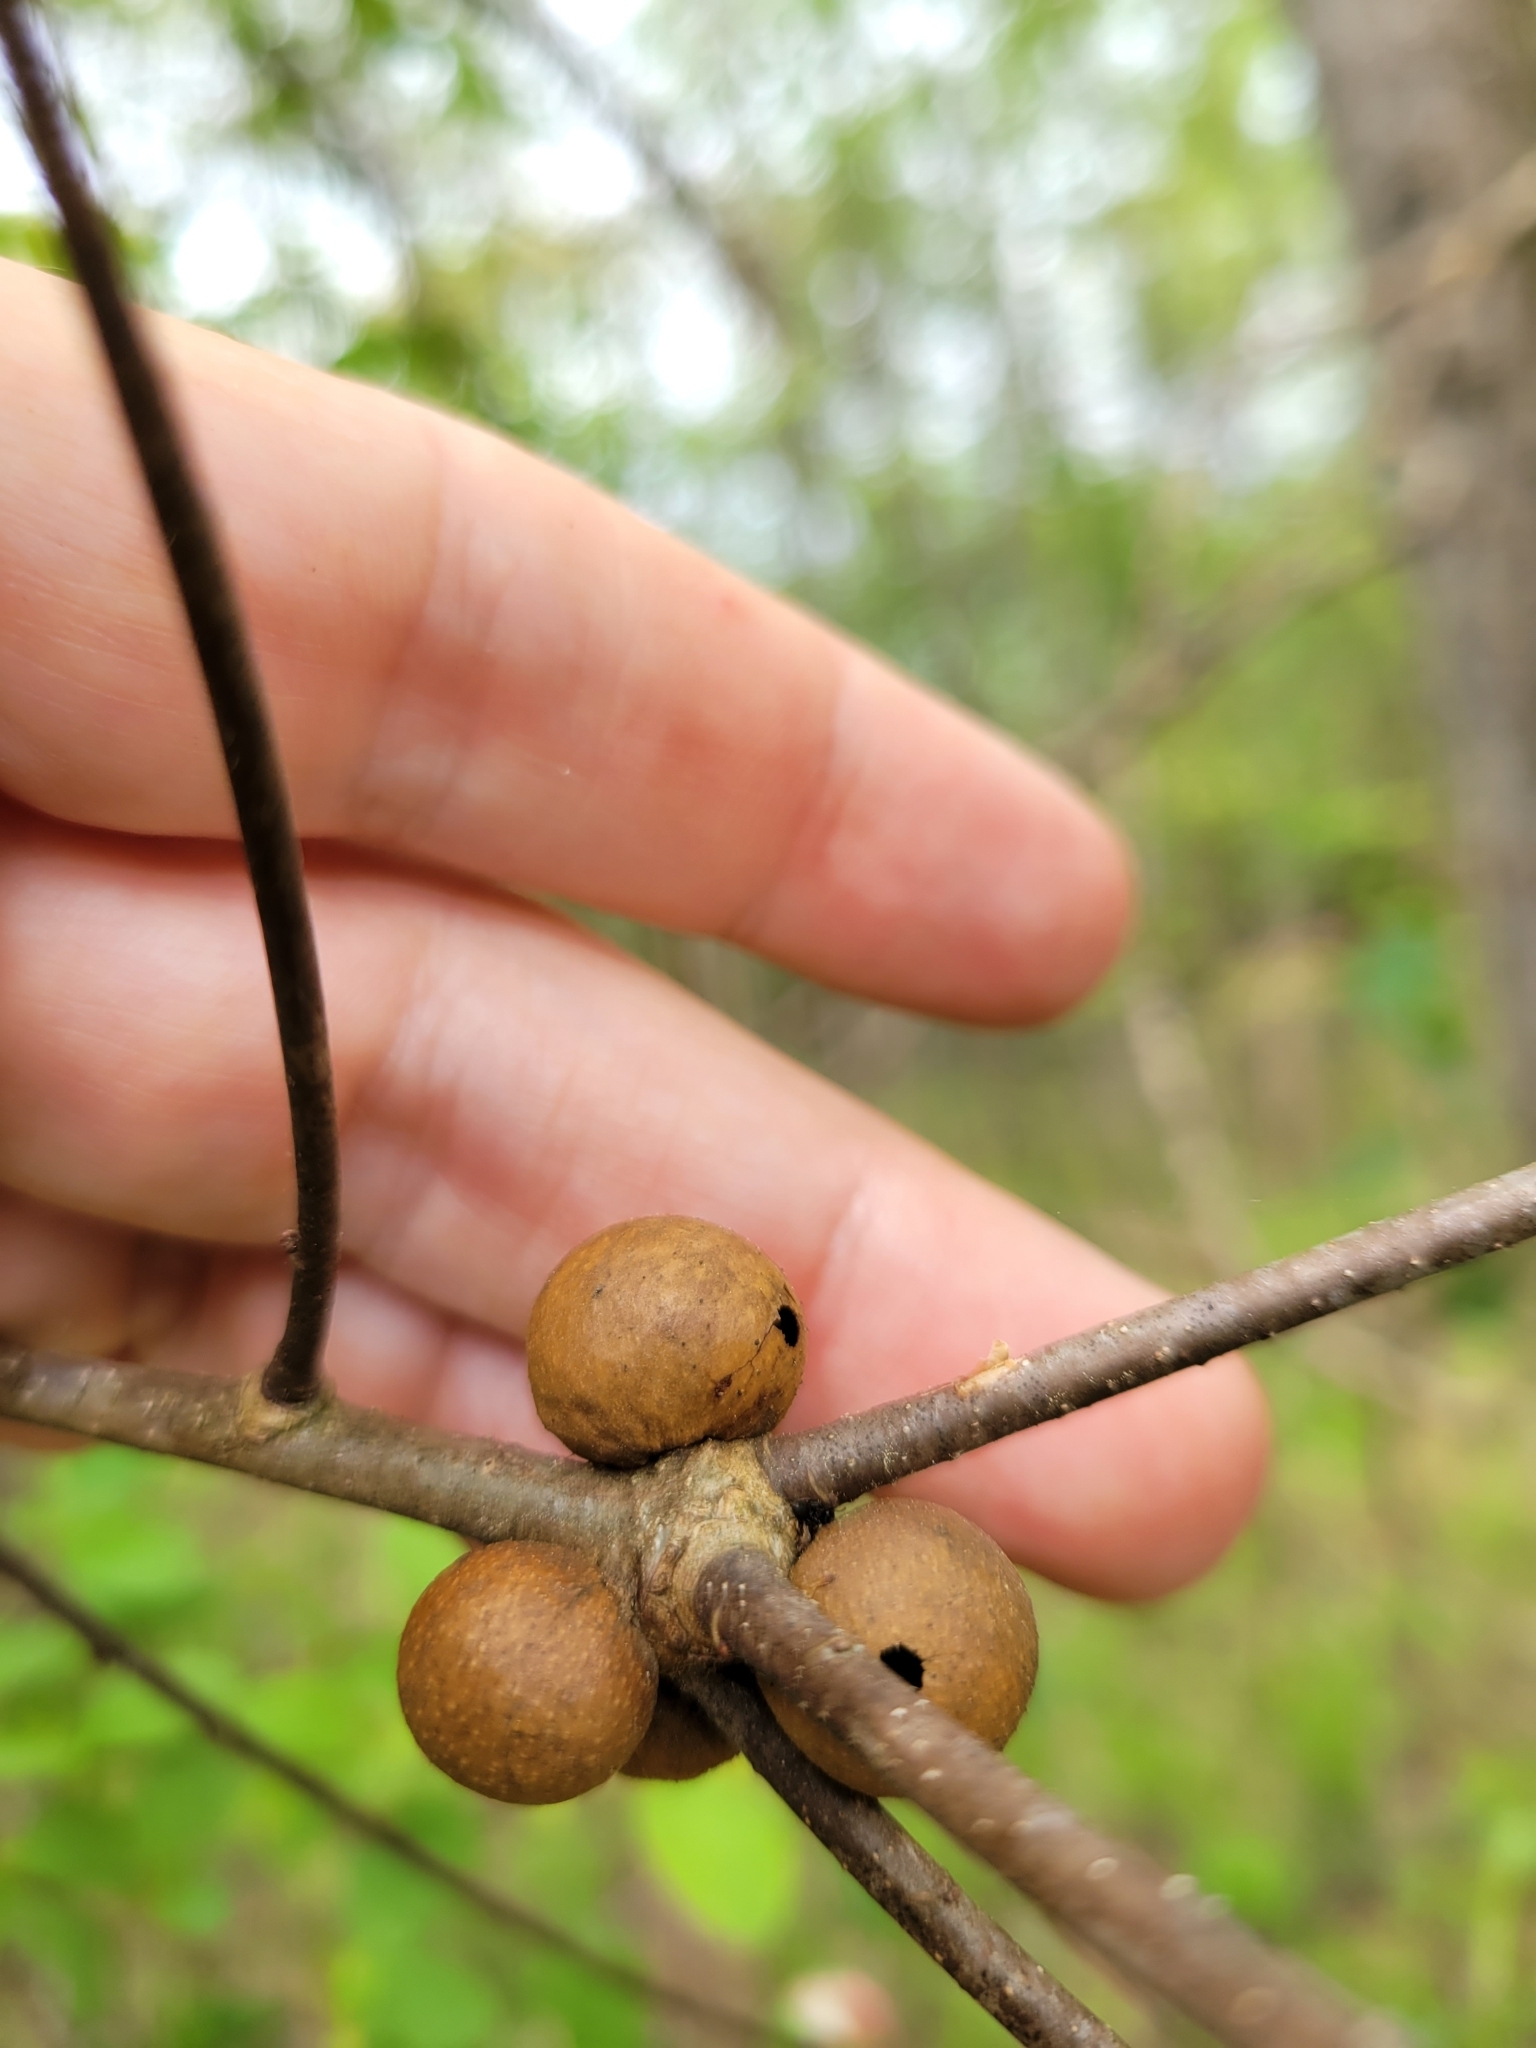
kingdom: Animalia
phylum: Arthropoda
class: Insecta
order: Hymenoptera
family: Cynipidae
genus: Disholcaspis
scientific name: Disholcaspis quercusglobulus
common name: Round bullet gall wasp
